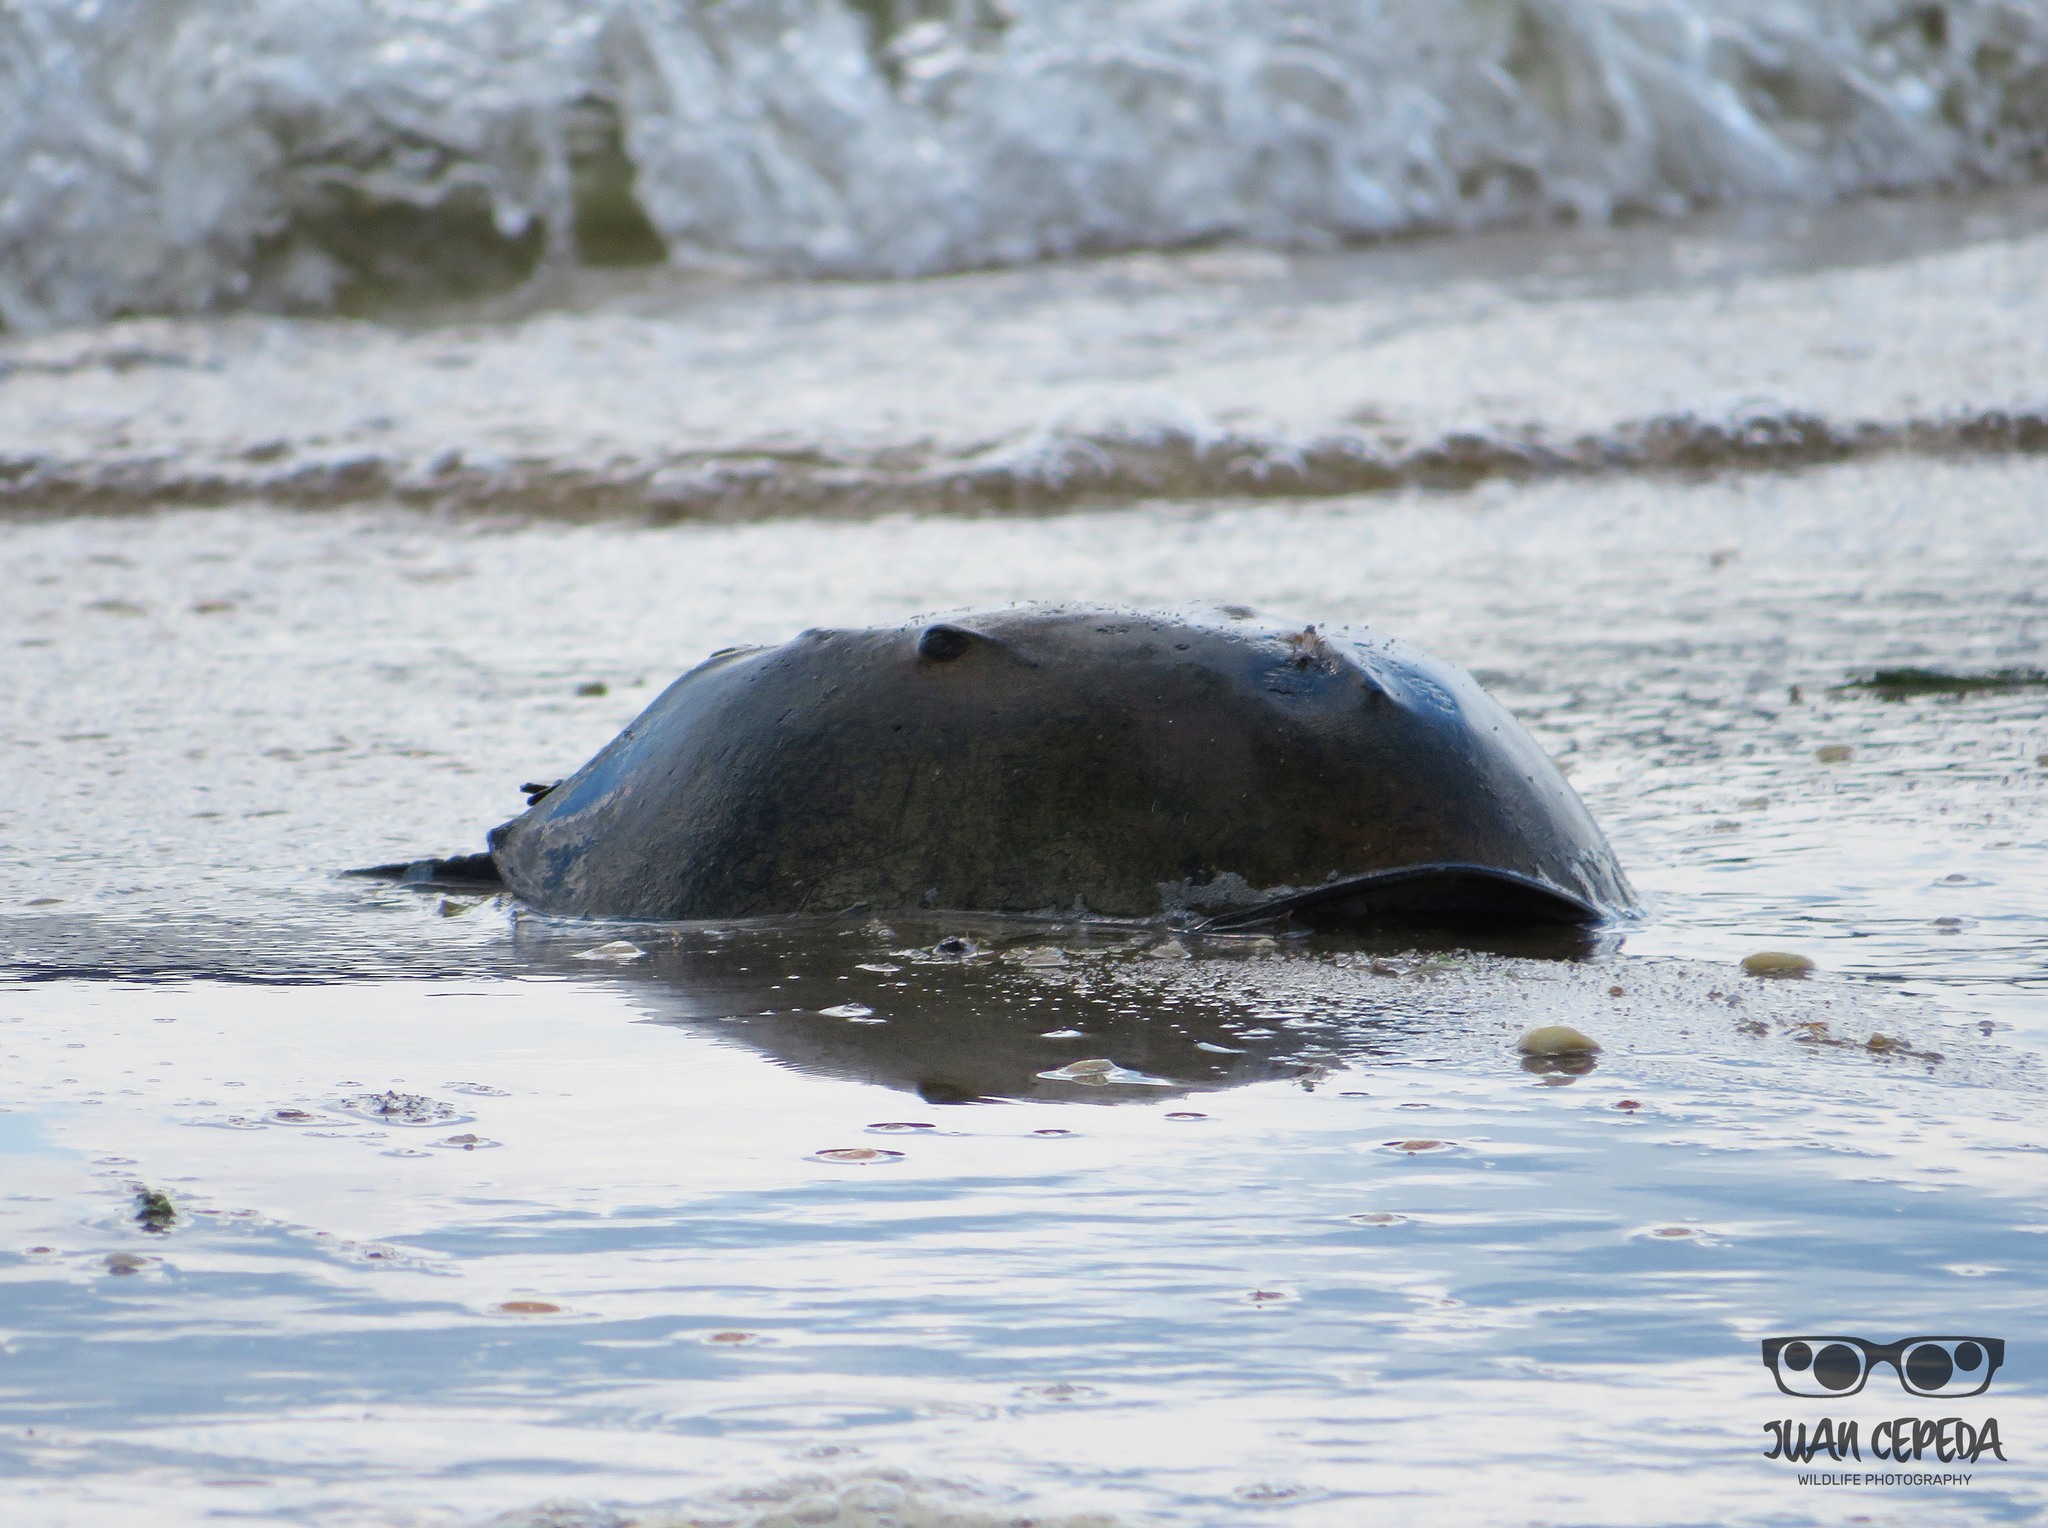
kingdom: Animalia
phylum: Arthropoda
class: Merostomata
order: Xiphosurida
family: Limulidae
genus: Limulus
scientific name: Limulus polyphemus
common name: Horseshoe crab
